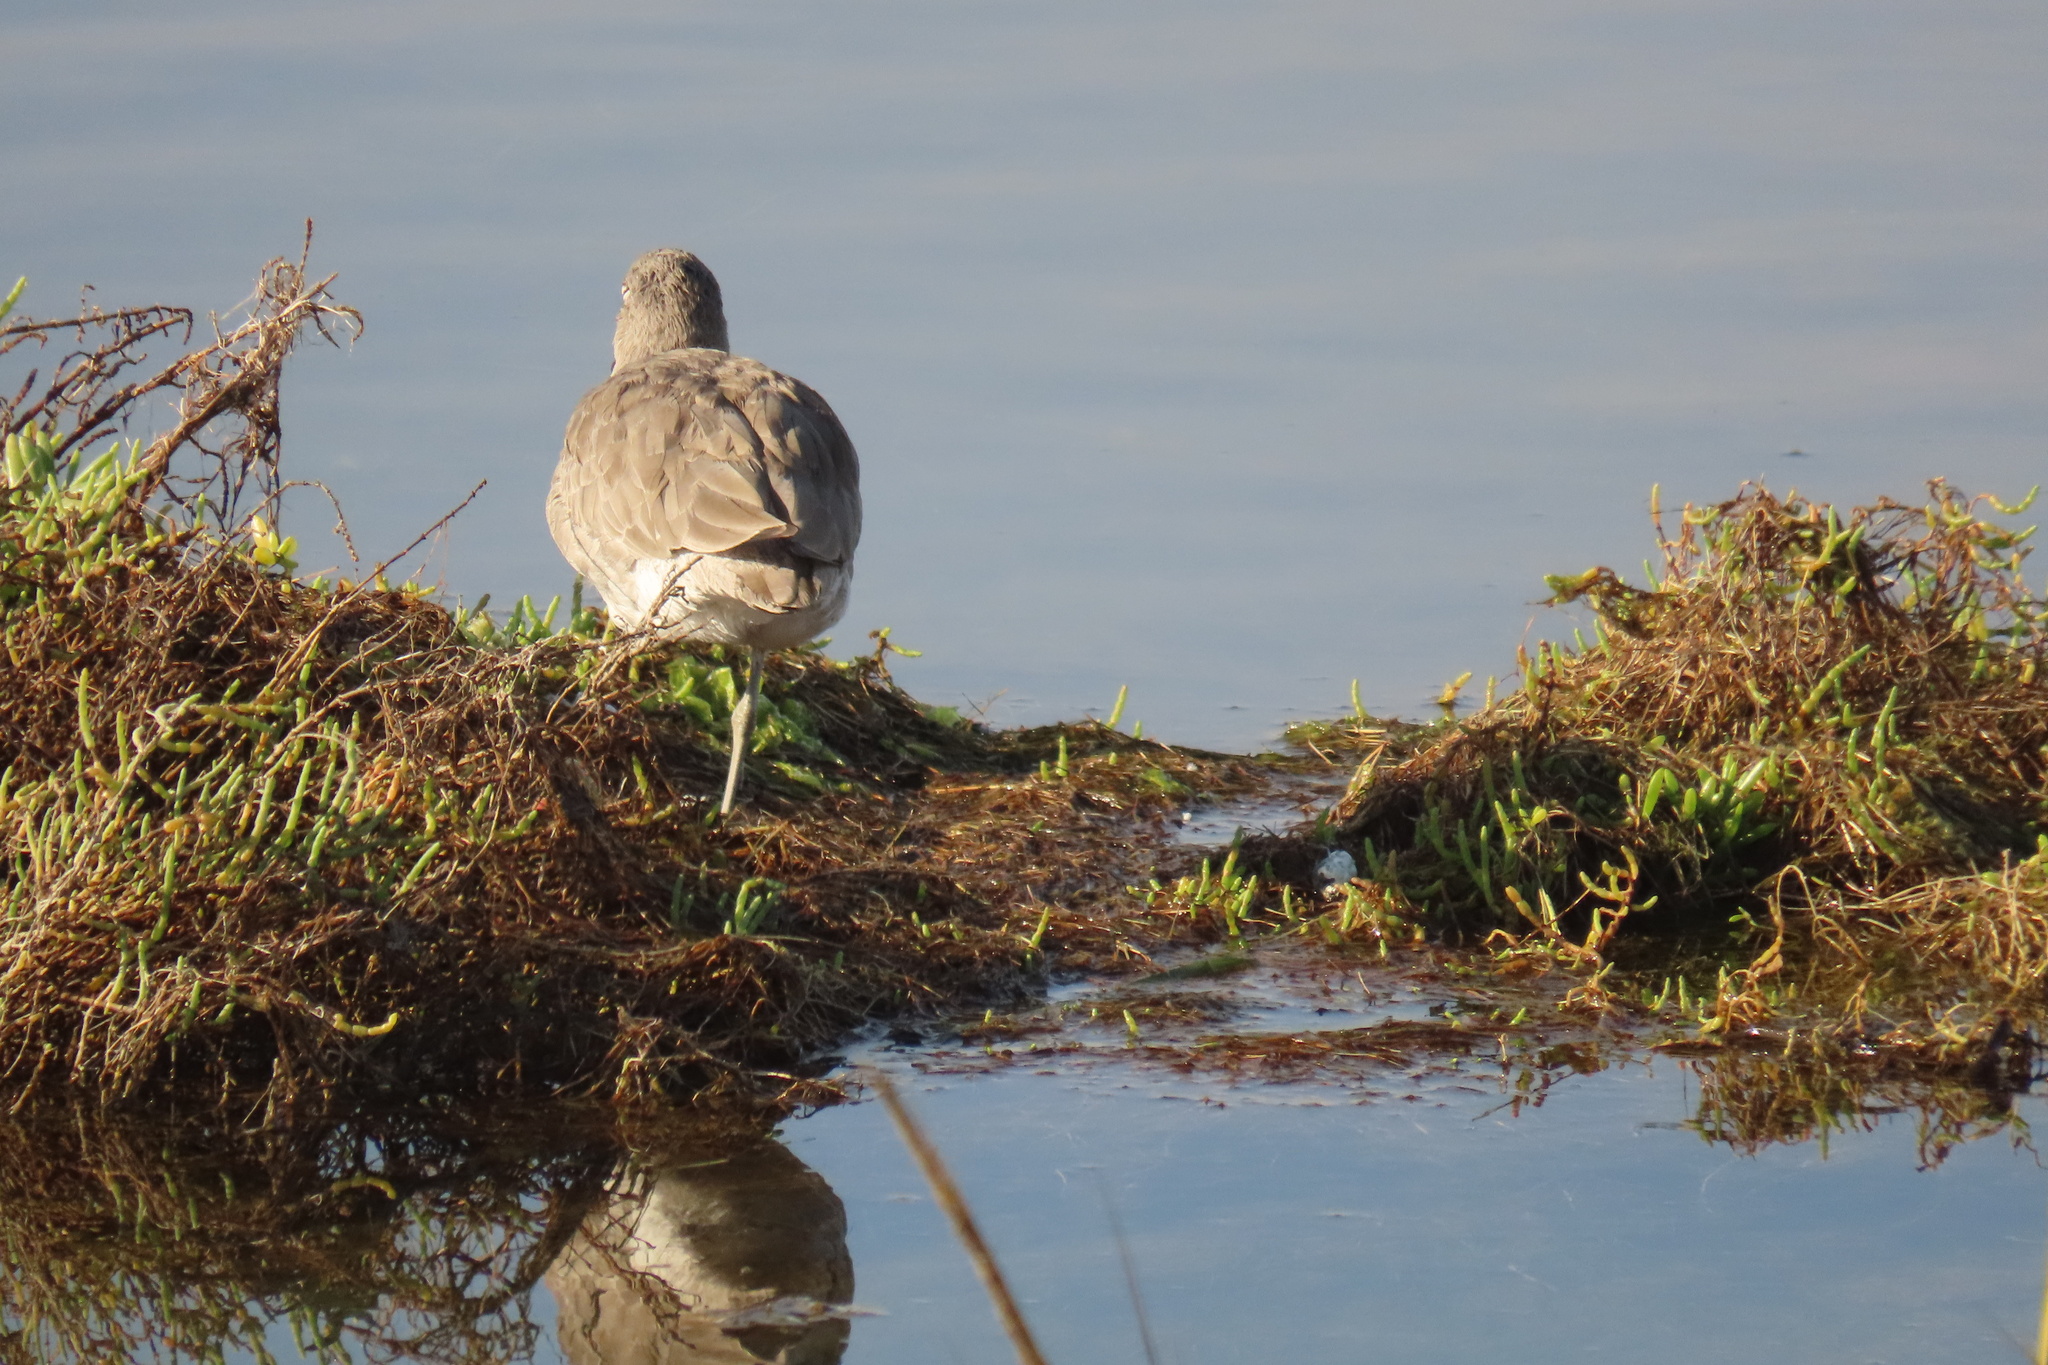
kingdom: Animalia
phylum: Chordata
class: Aves
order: Charadriiformes
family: Scolopacidae
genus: Tringa
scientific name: Tringa semipalmata
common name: Willet
